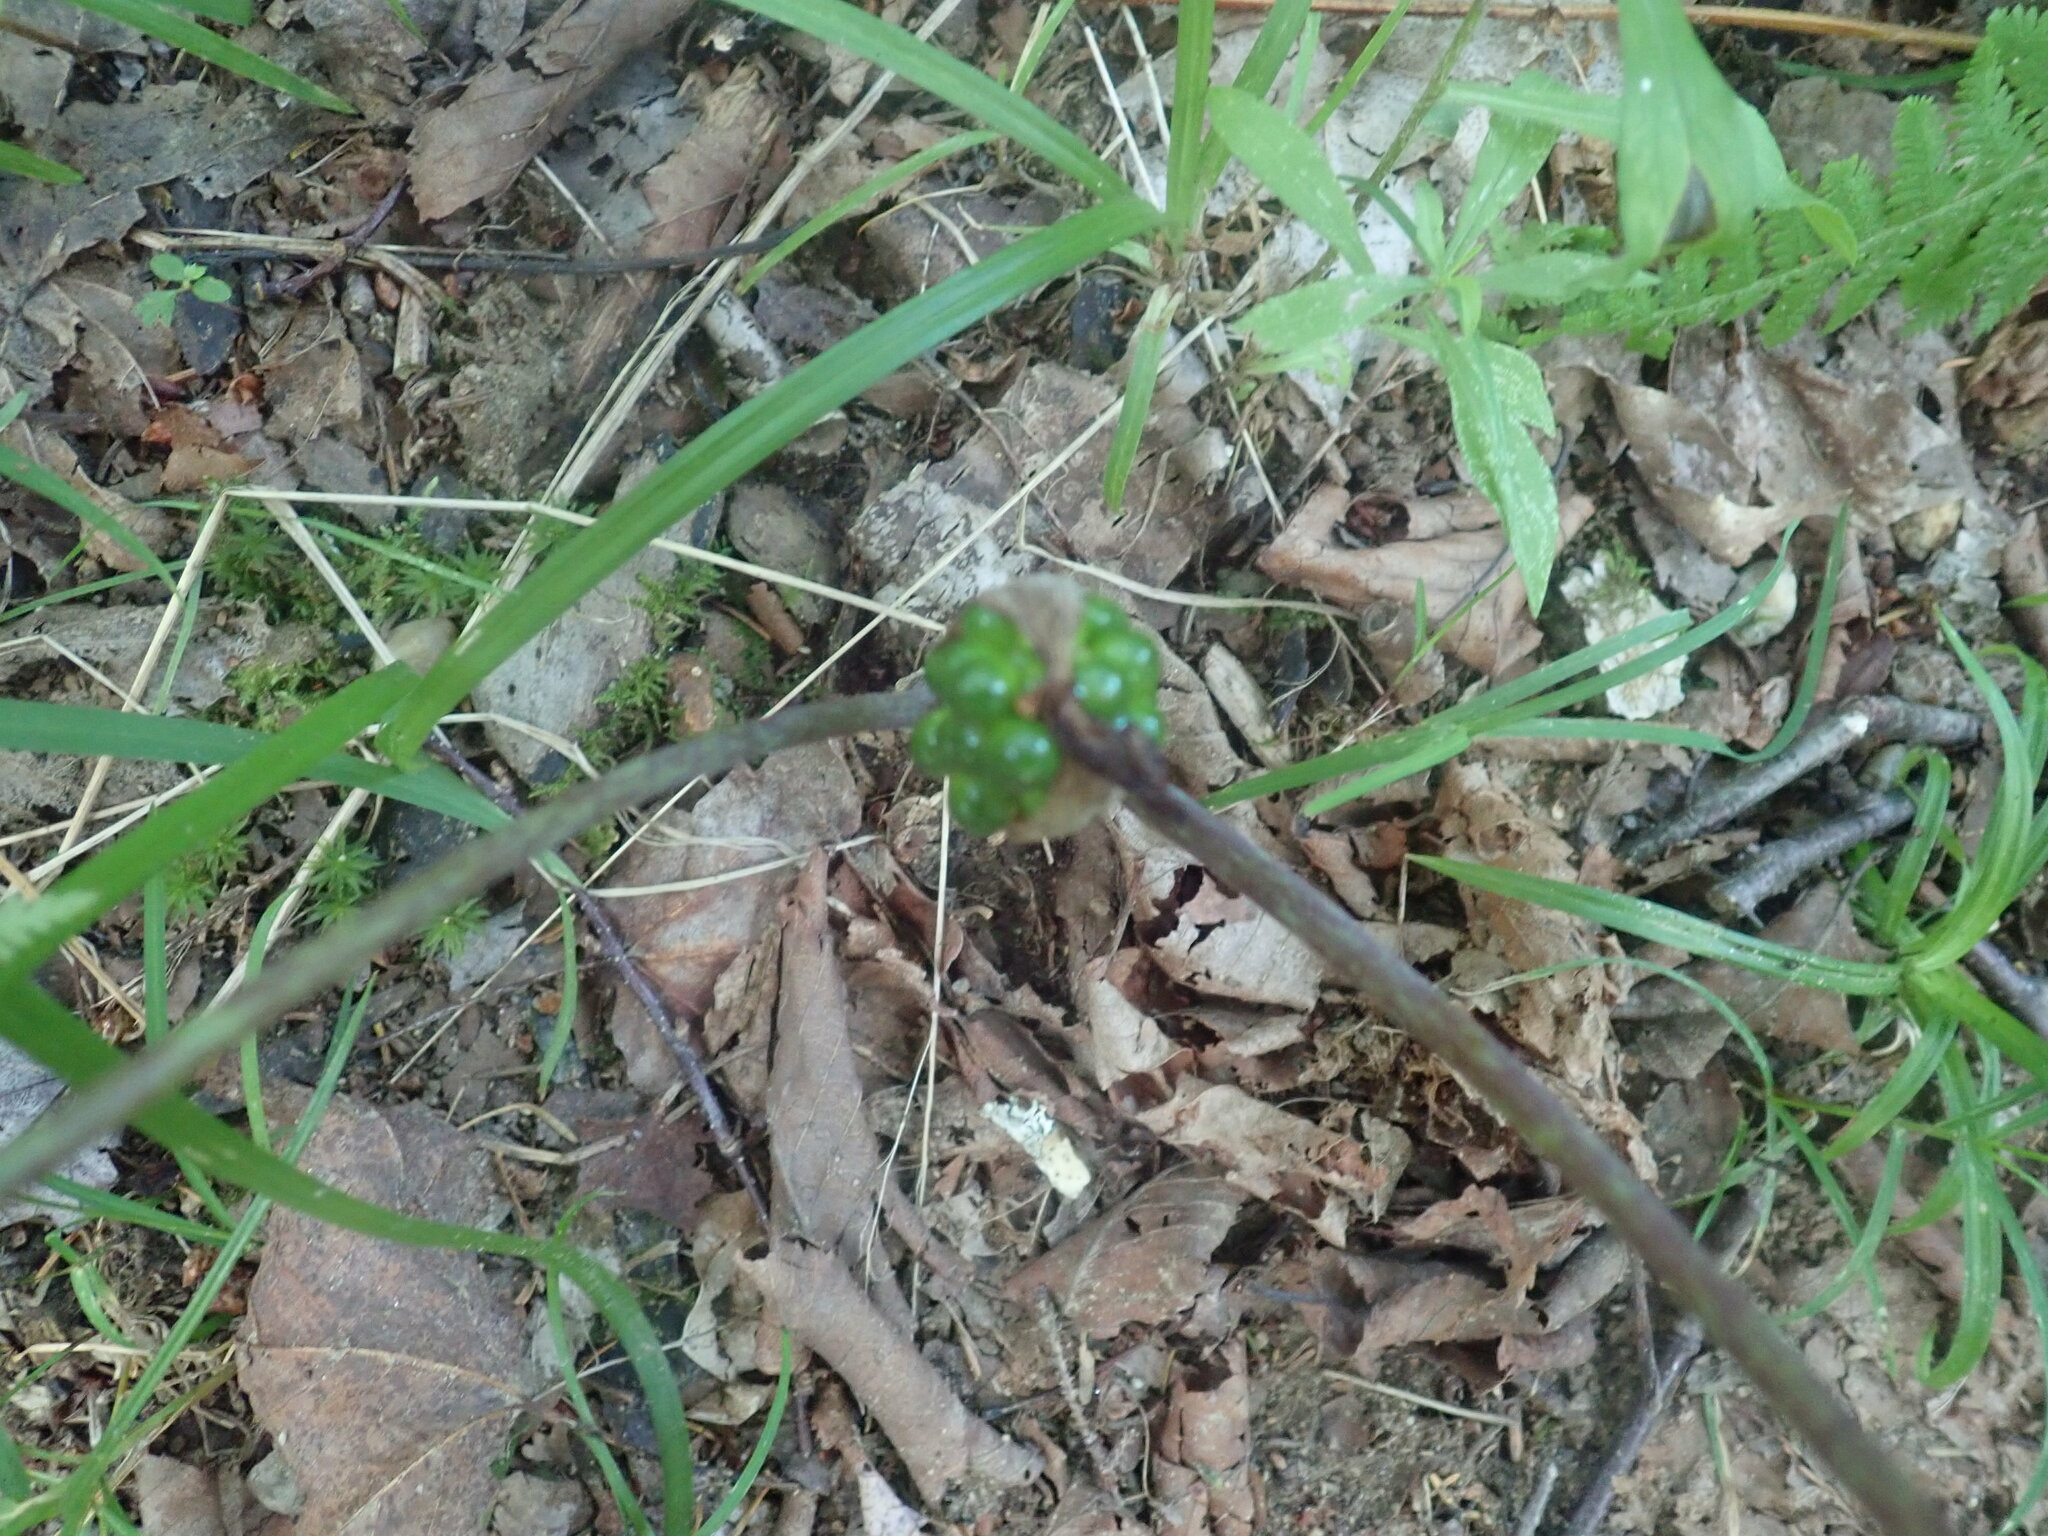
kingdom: Plantae
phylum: Tracheophyta
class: Liliopsida
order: Alismatales
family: Araceae
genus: Arisaema
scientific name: Arisaema triphyllum
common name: Jack-in-the-pulpit
